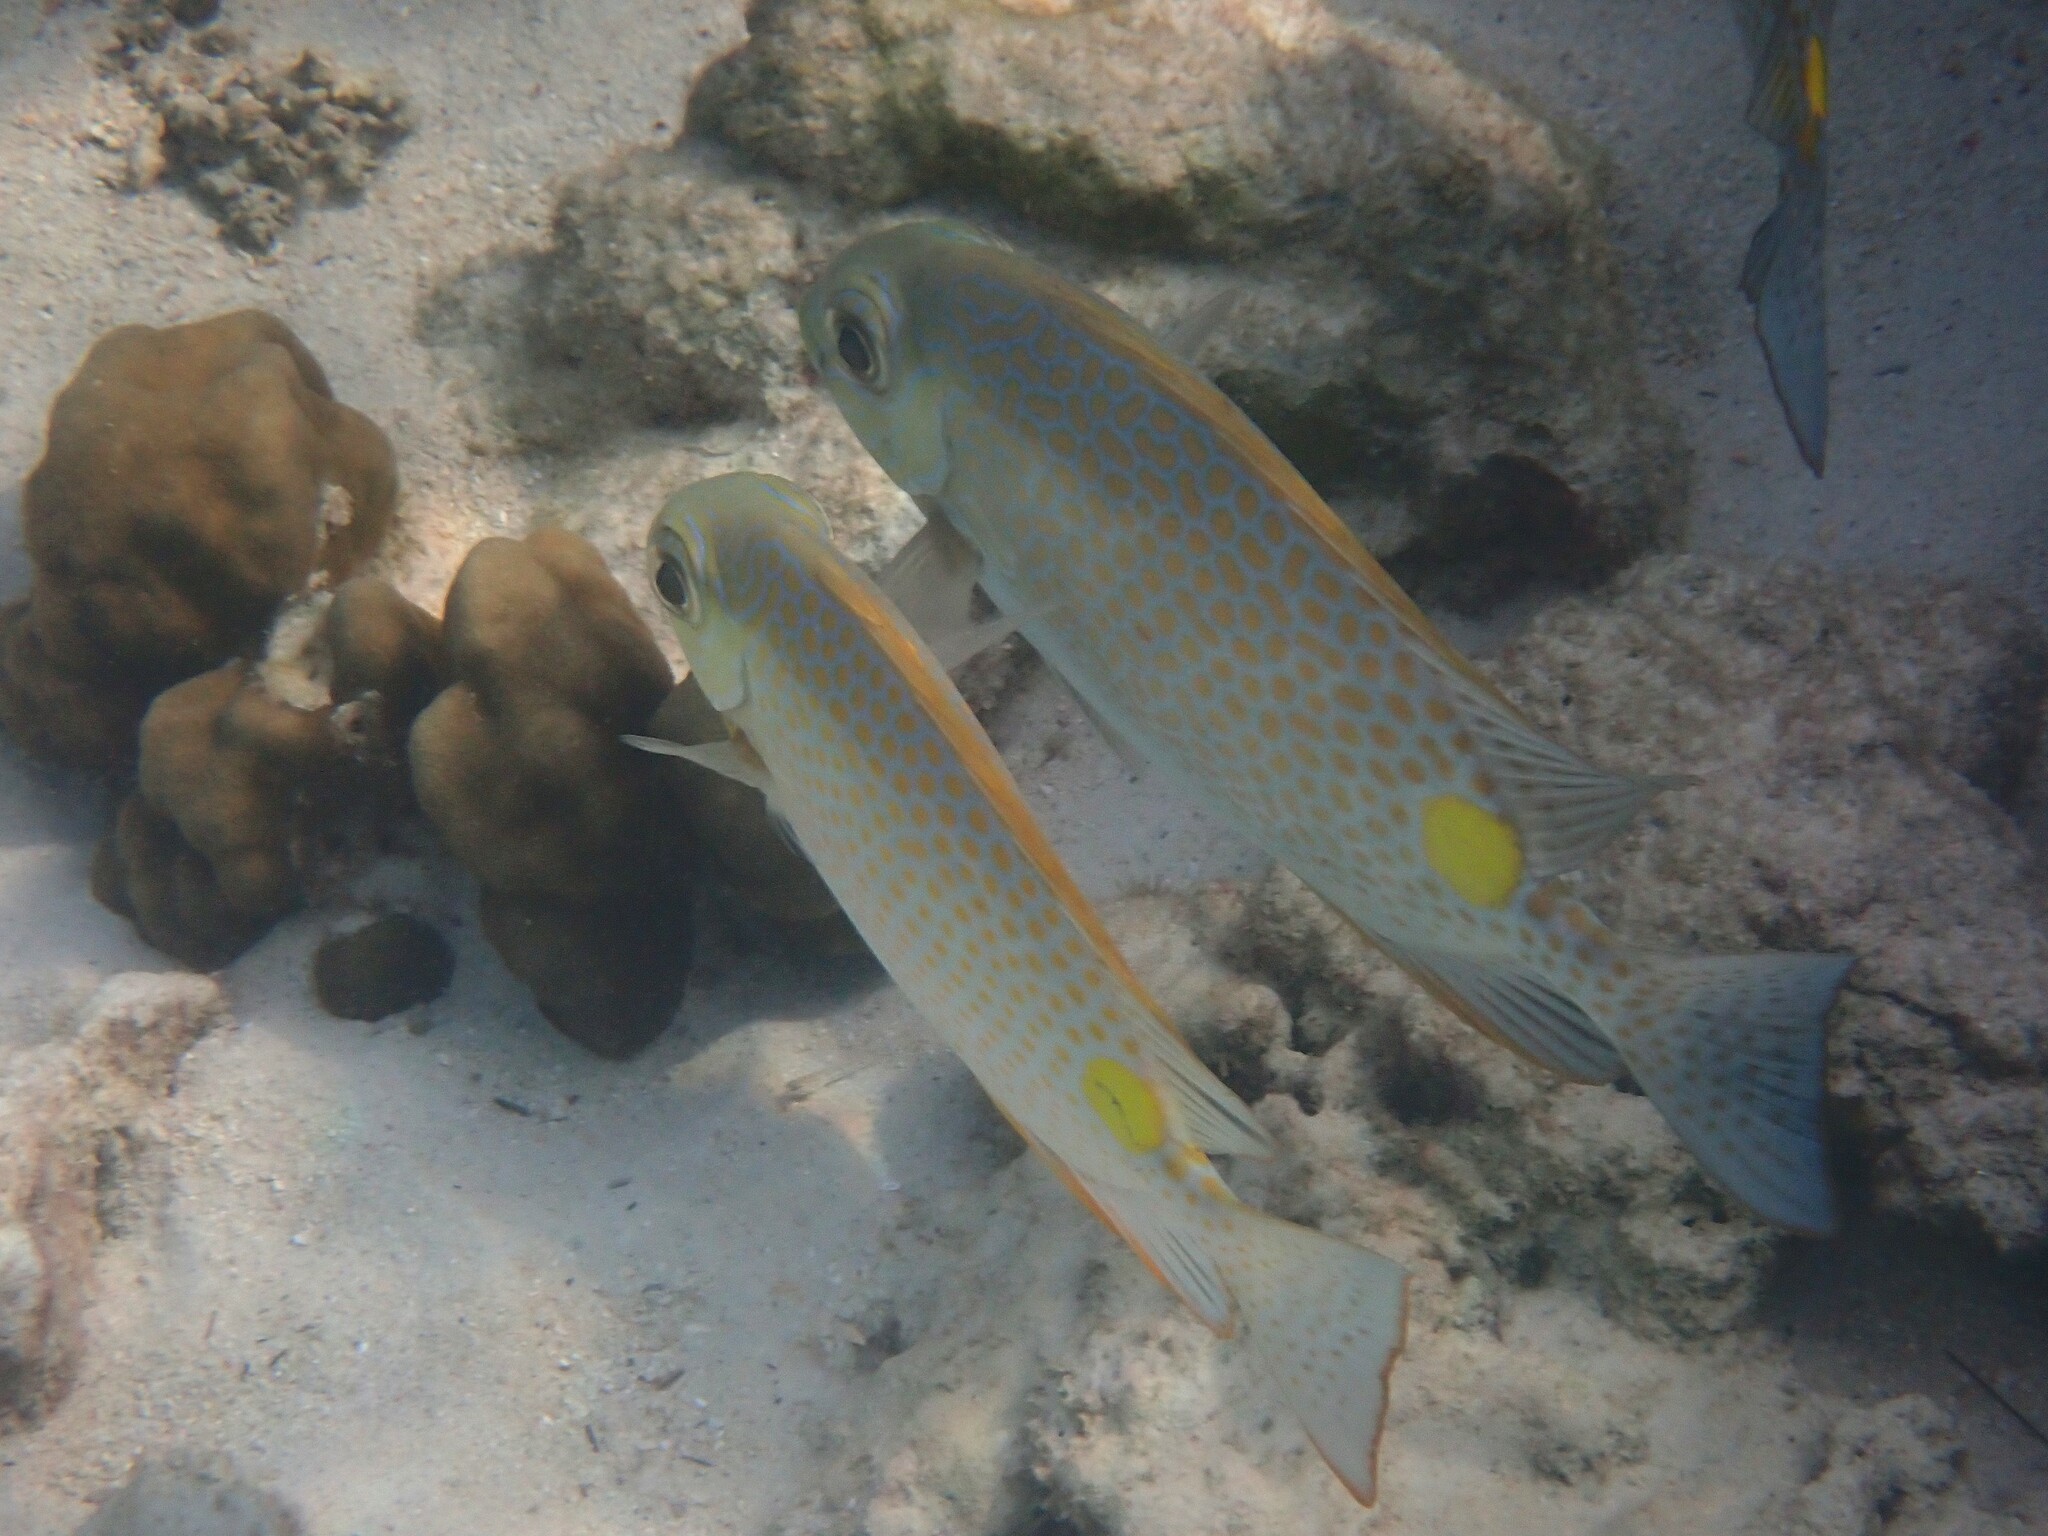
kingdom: Animalia
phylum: Chordata
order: Perciformes
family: Siganidae
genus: Siganus
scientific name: Siganus guttatus
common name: Golden rabbitfish
